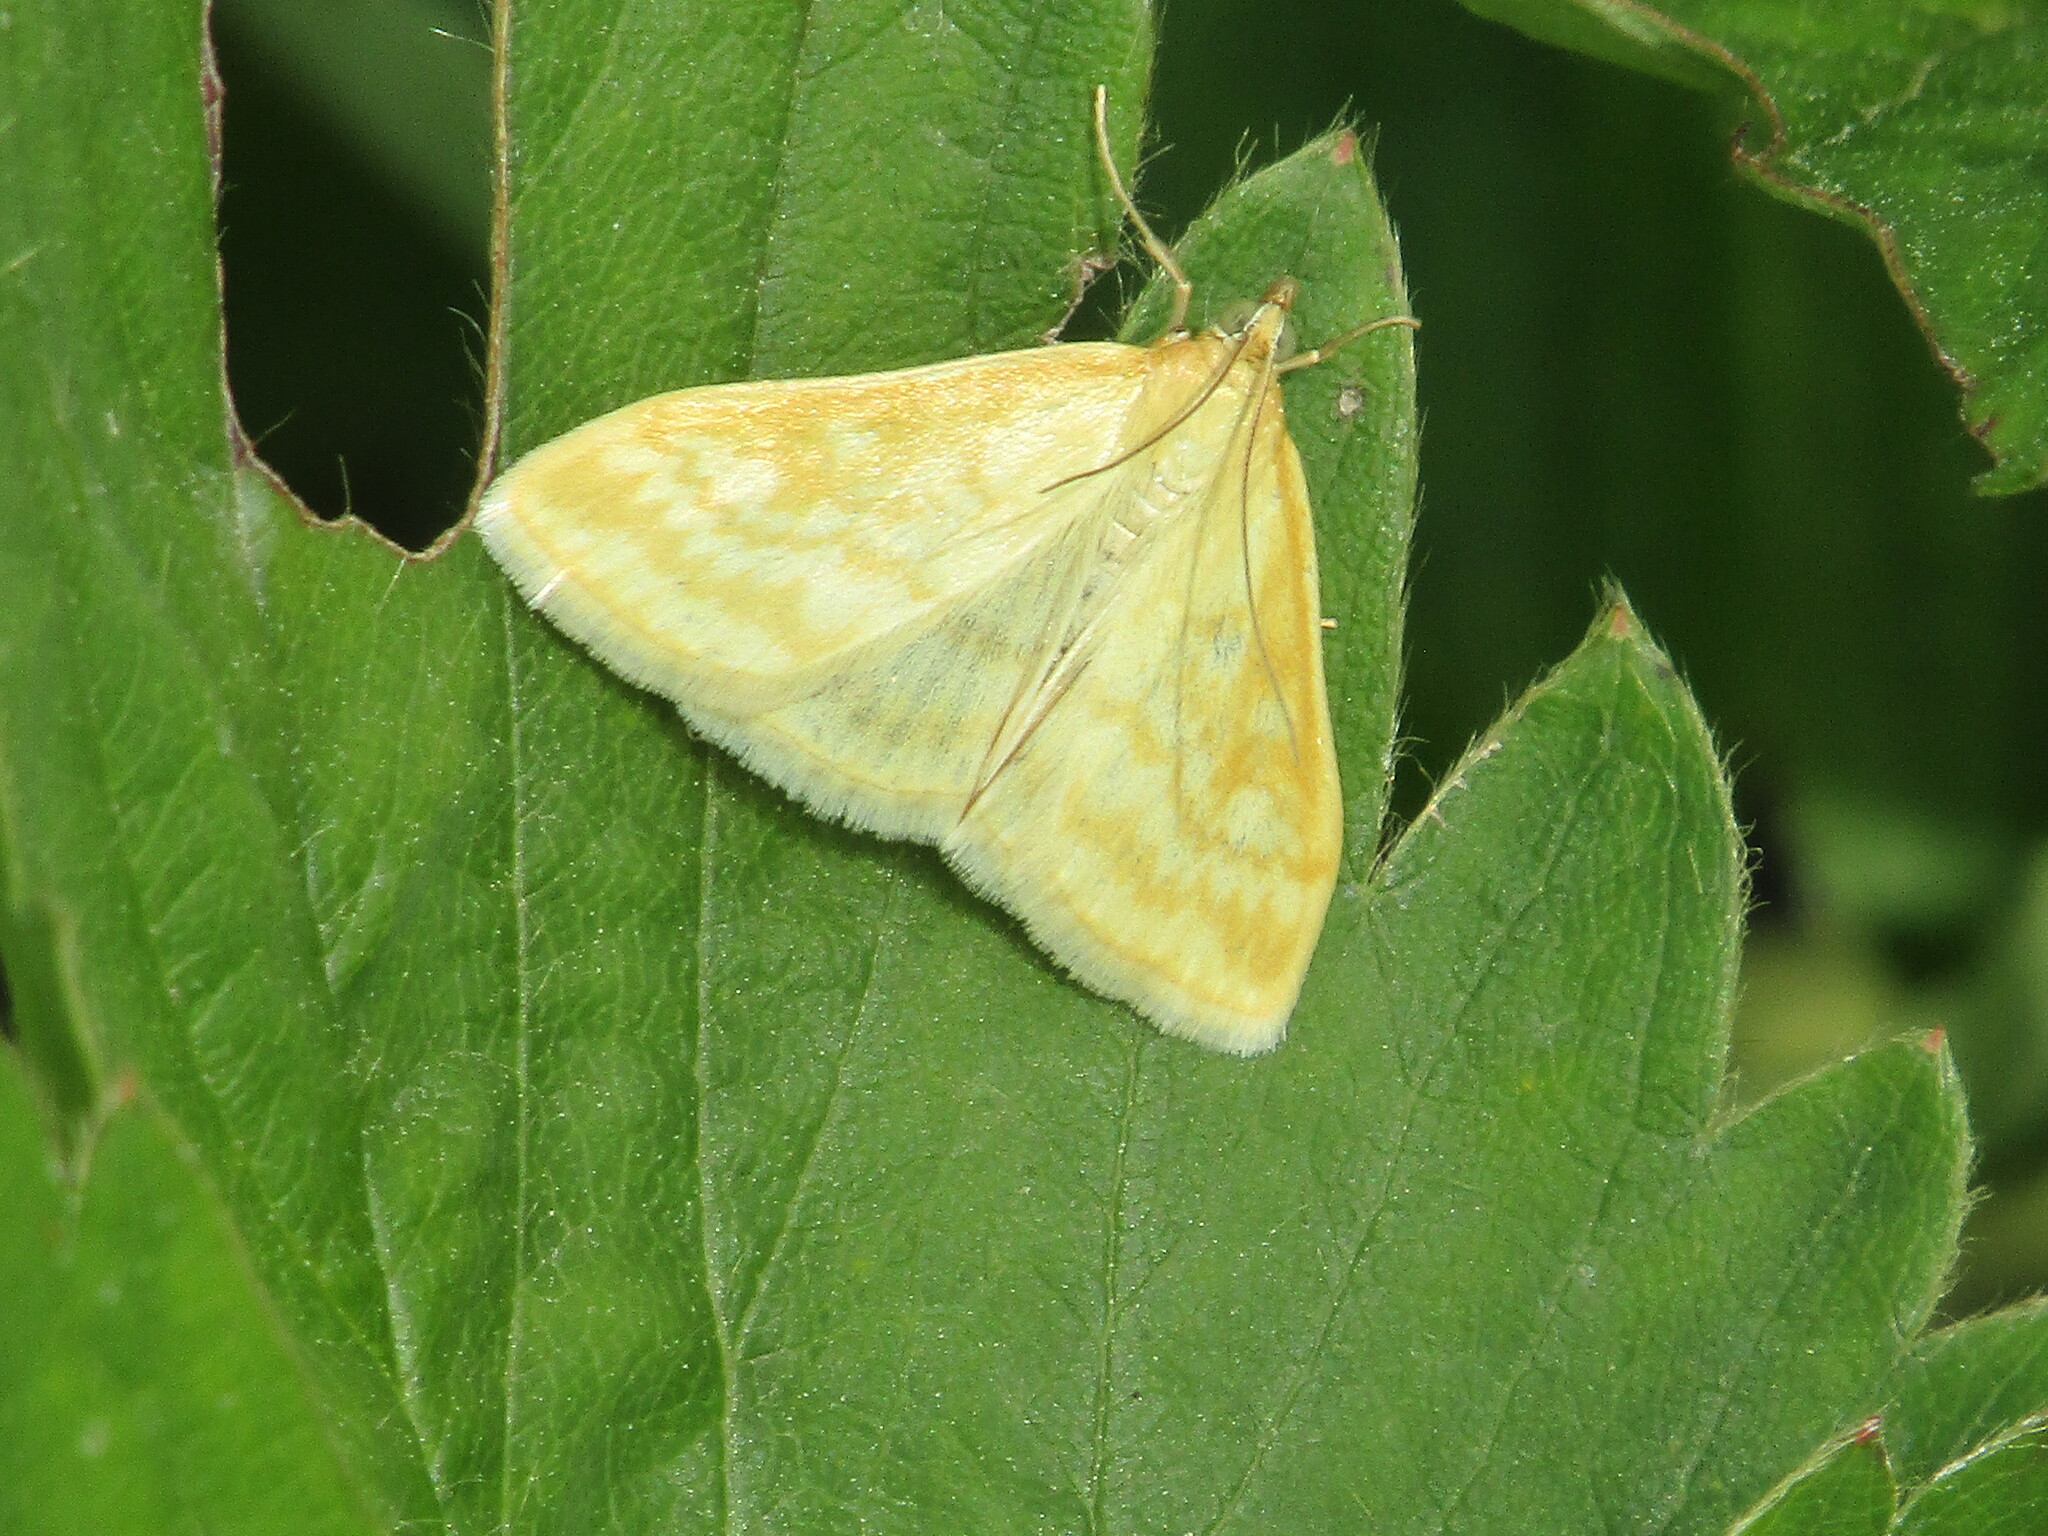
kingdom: Animalia
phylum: Arthropoda
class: Insecta
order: Lepidoptera
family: Crambidae
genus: Sitochroa
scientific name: Sitochroa verticalis
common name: Lesser pearl
